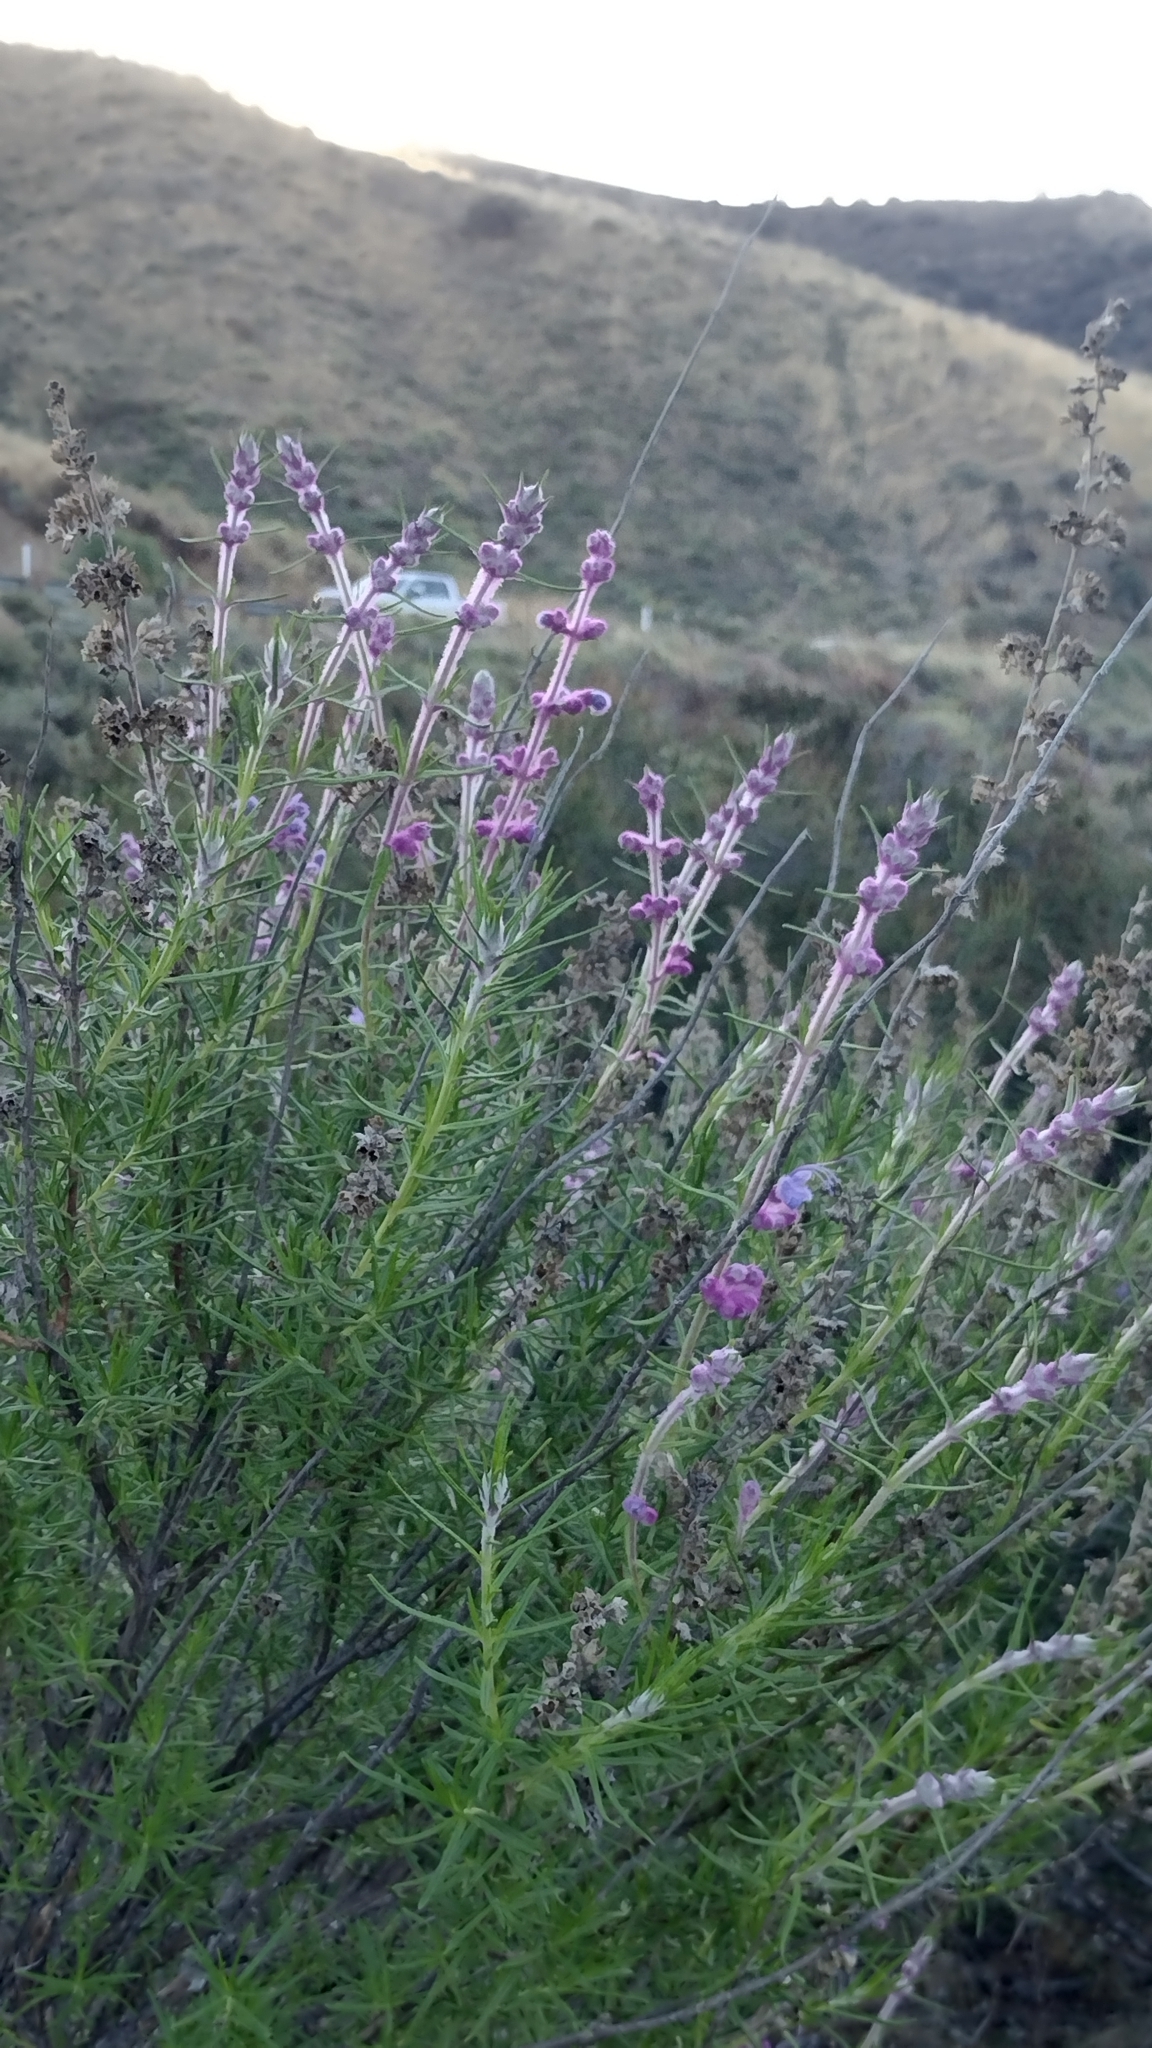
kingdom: Plantae
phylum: Tracheophyta
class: Magnoliopsida
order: Lamiales
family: Lamiaceae
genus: Trichostema
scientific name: Trichostema lanatum
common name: Woolly bluecurls
